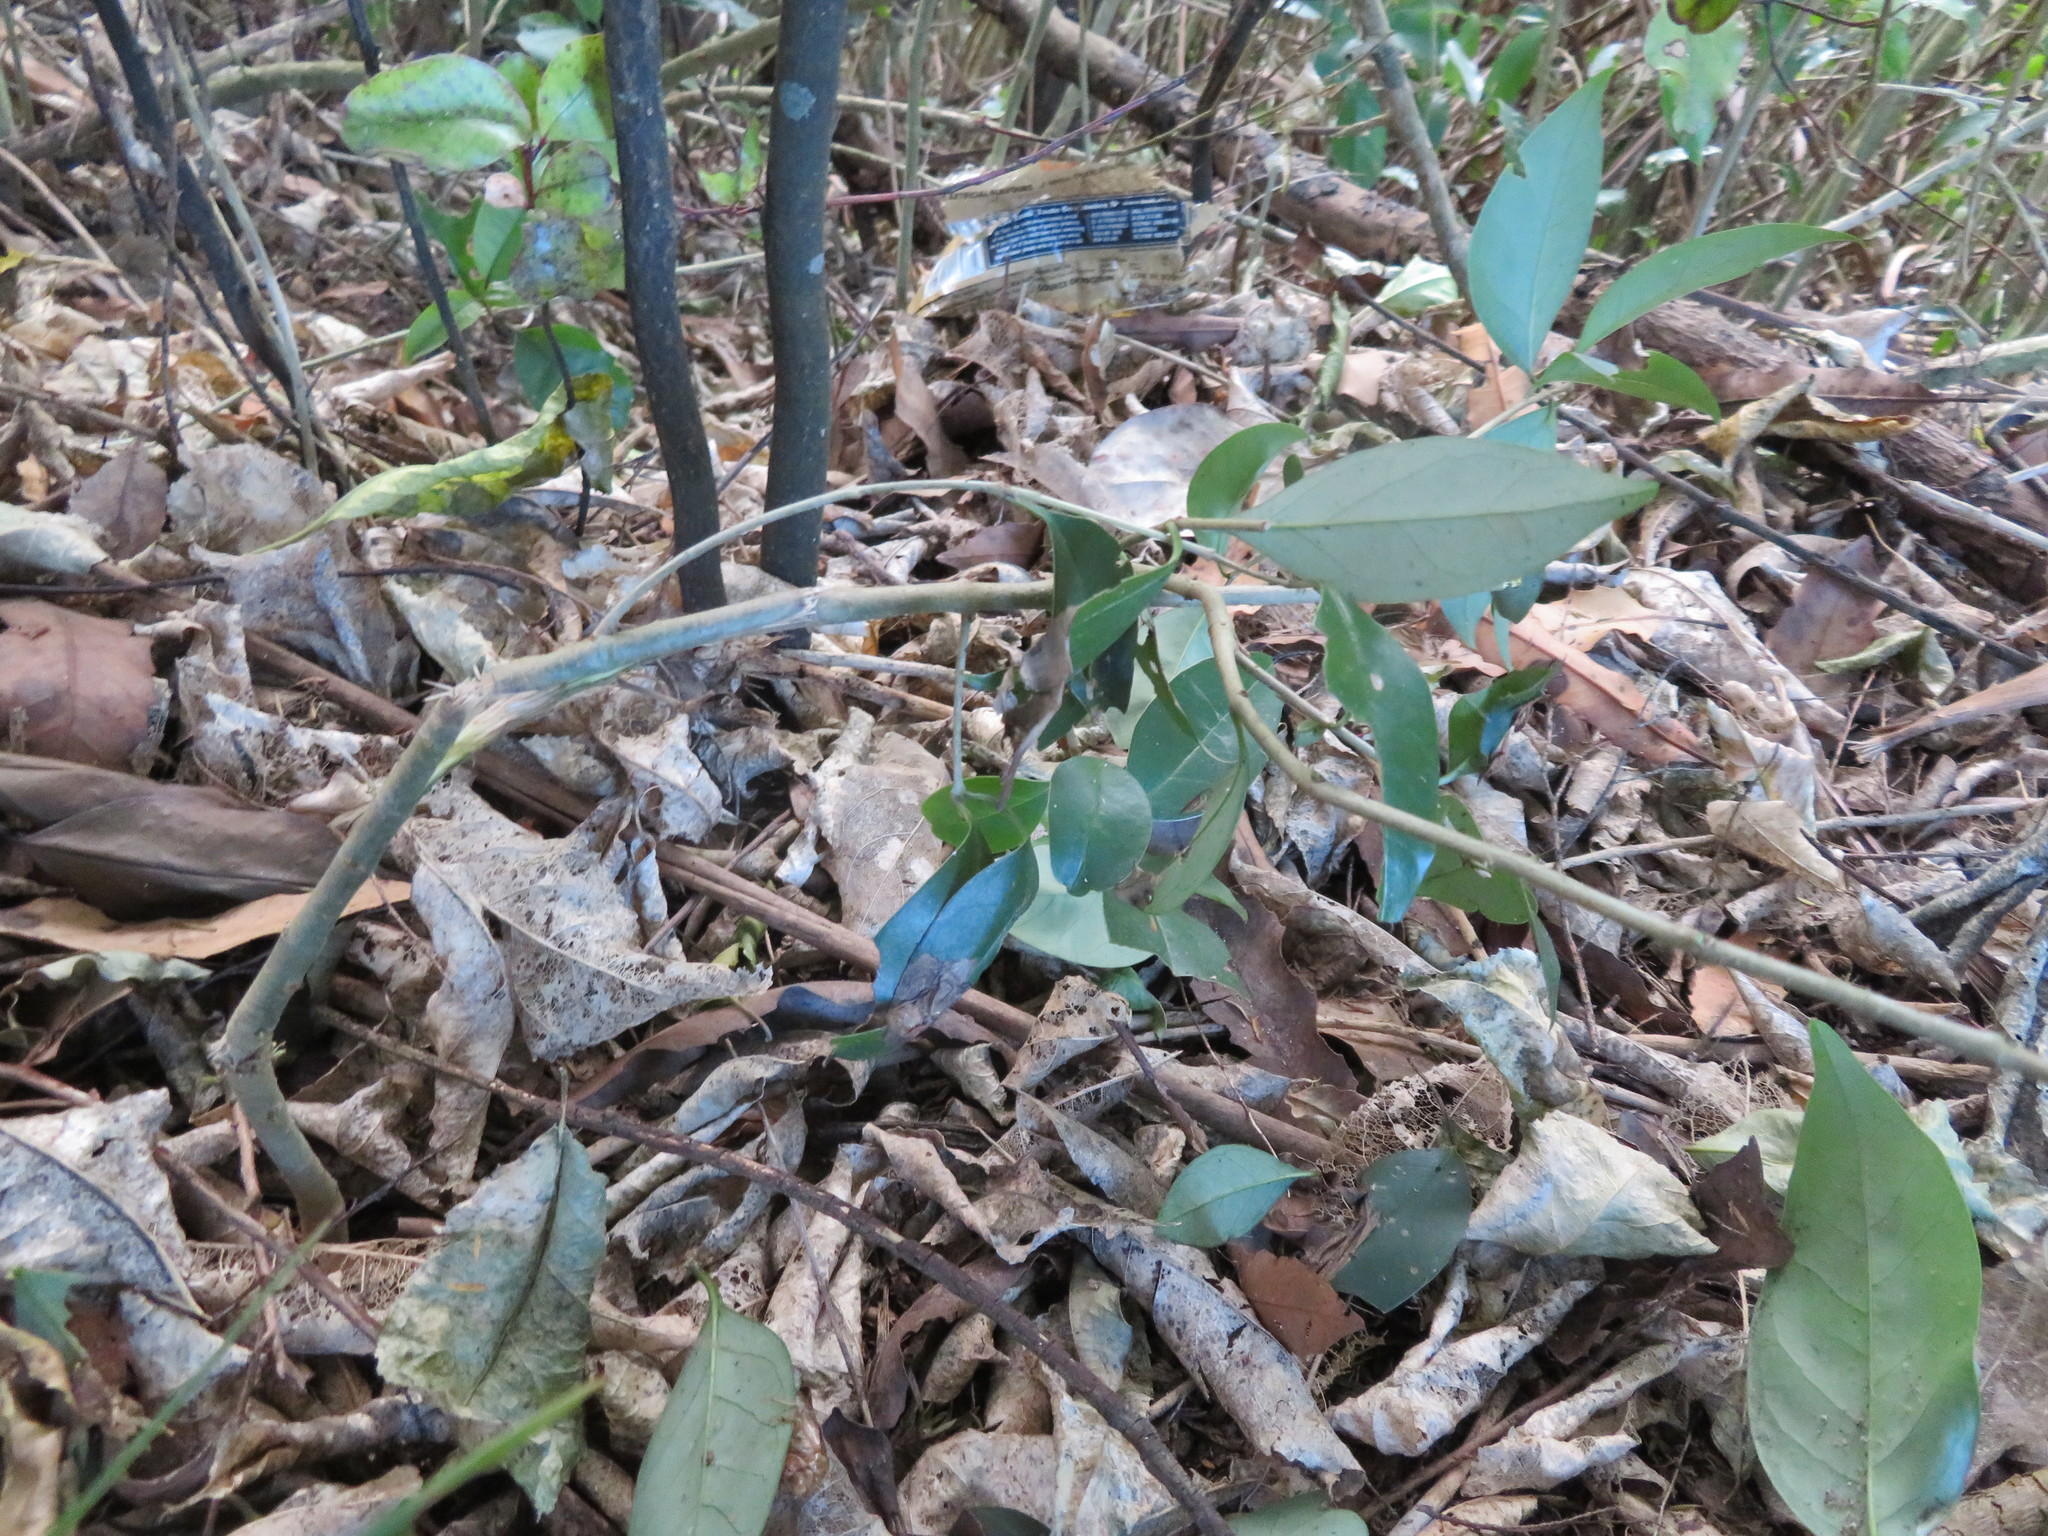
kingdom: Plantae
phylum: Tracheophyta
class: Magnoliopsida
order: Lamiales
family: Oleaceae
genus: Ligustrum
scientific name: Ligustrum lucidum
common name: Glossy privet
